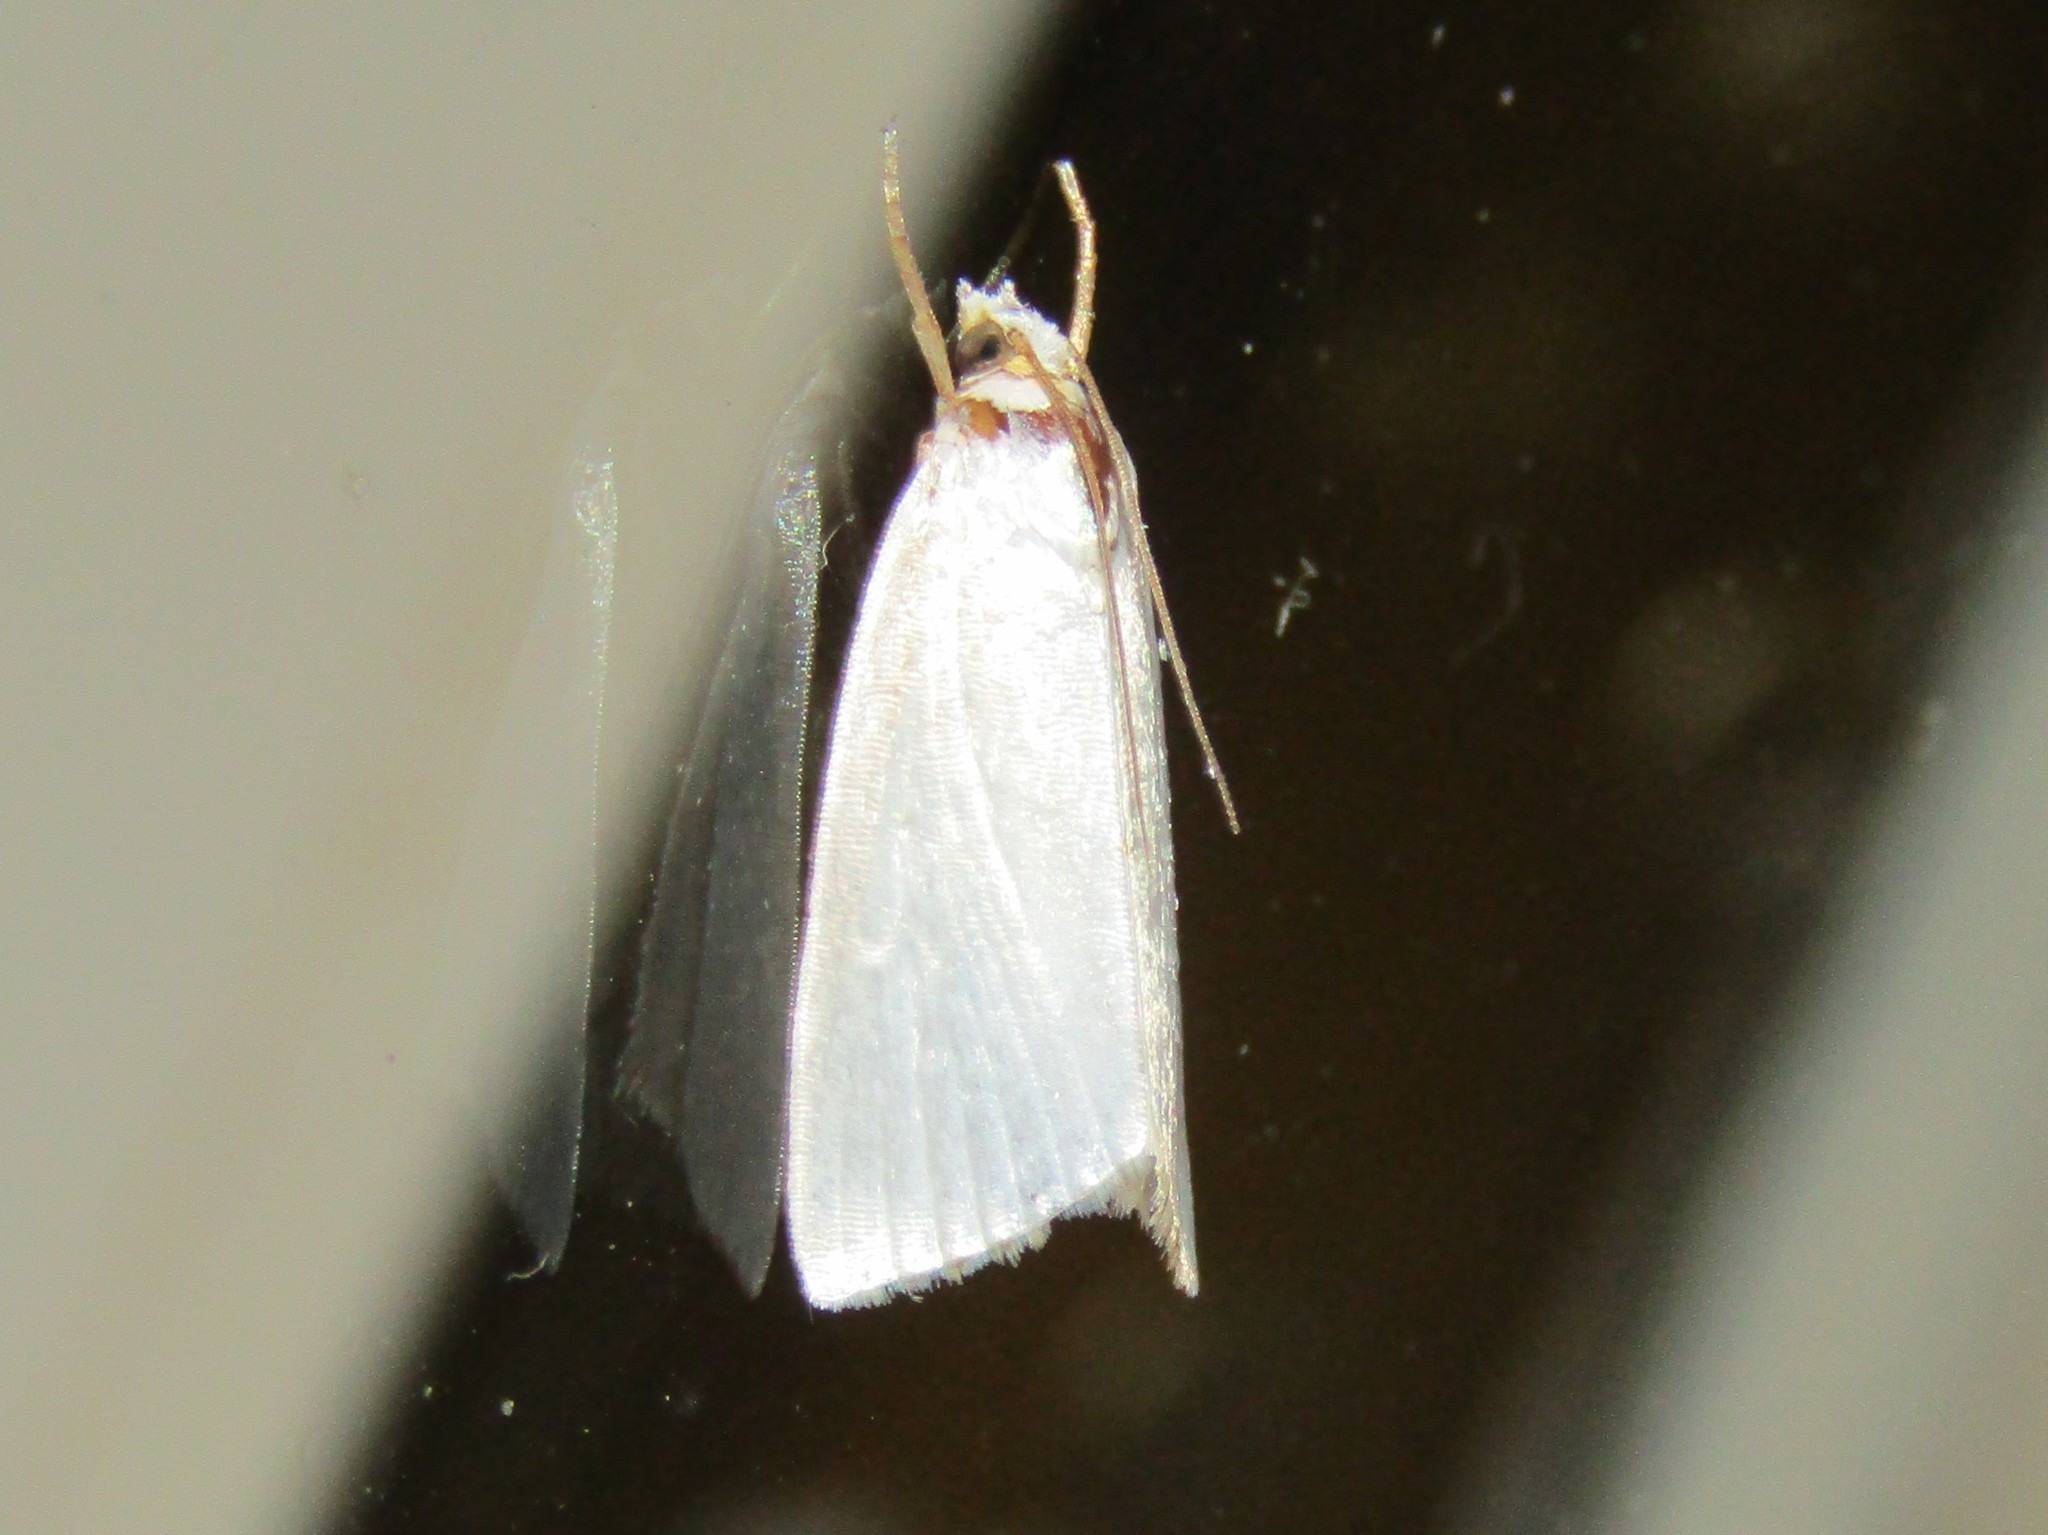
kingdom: Animalia
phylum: Arthropoda
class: Insecta
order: Lepidoptera
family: Crambidae
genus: Argyria
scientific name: Argyria nivalis
